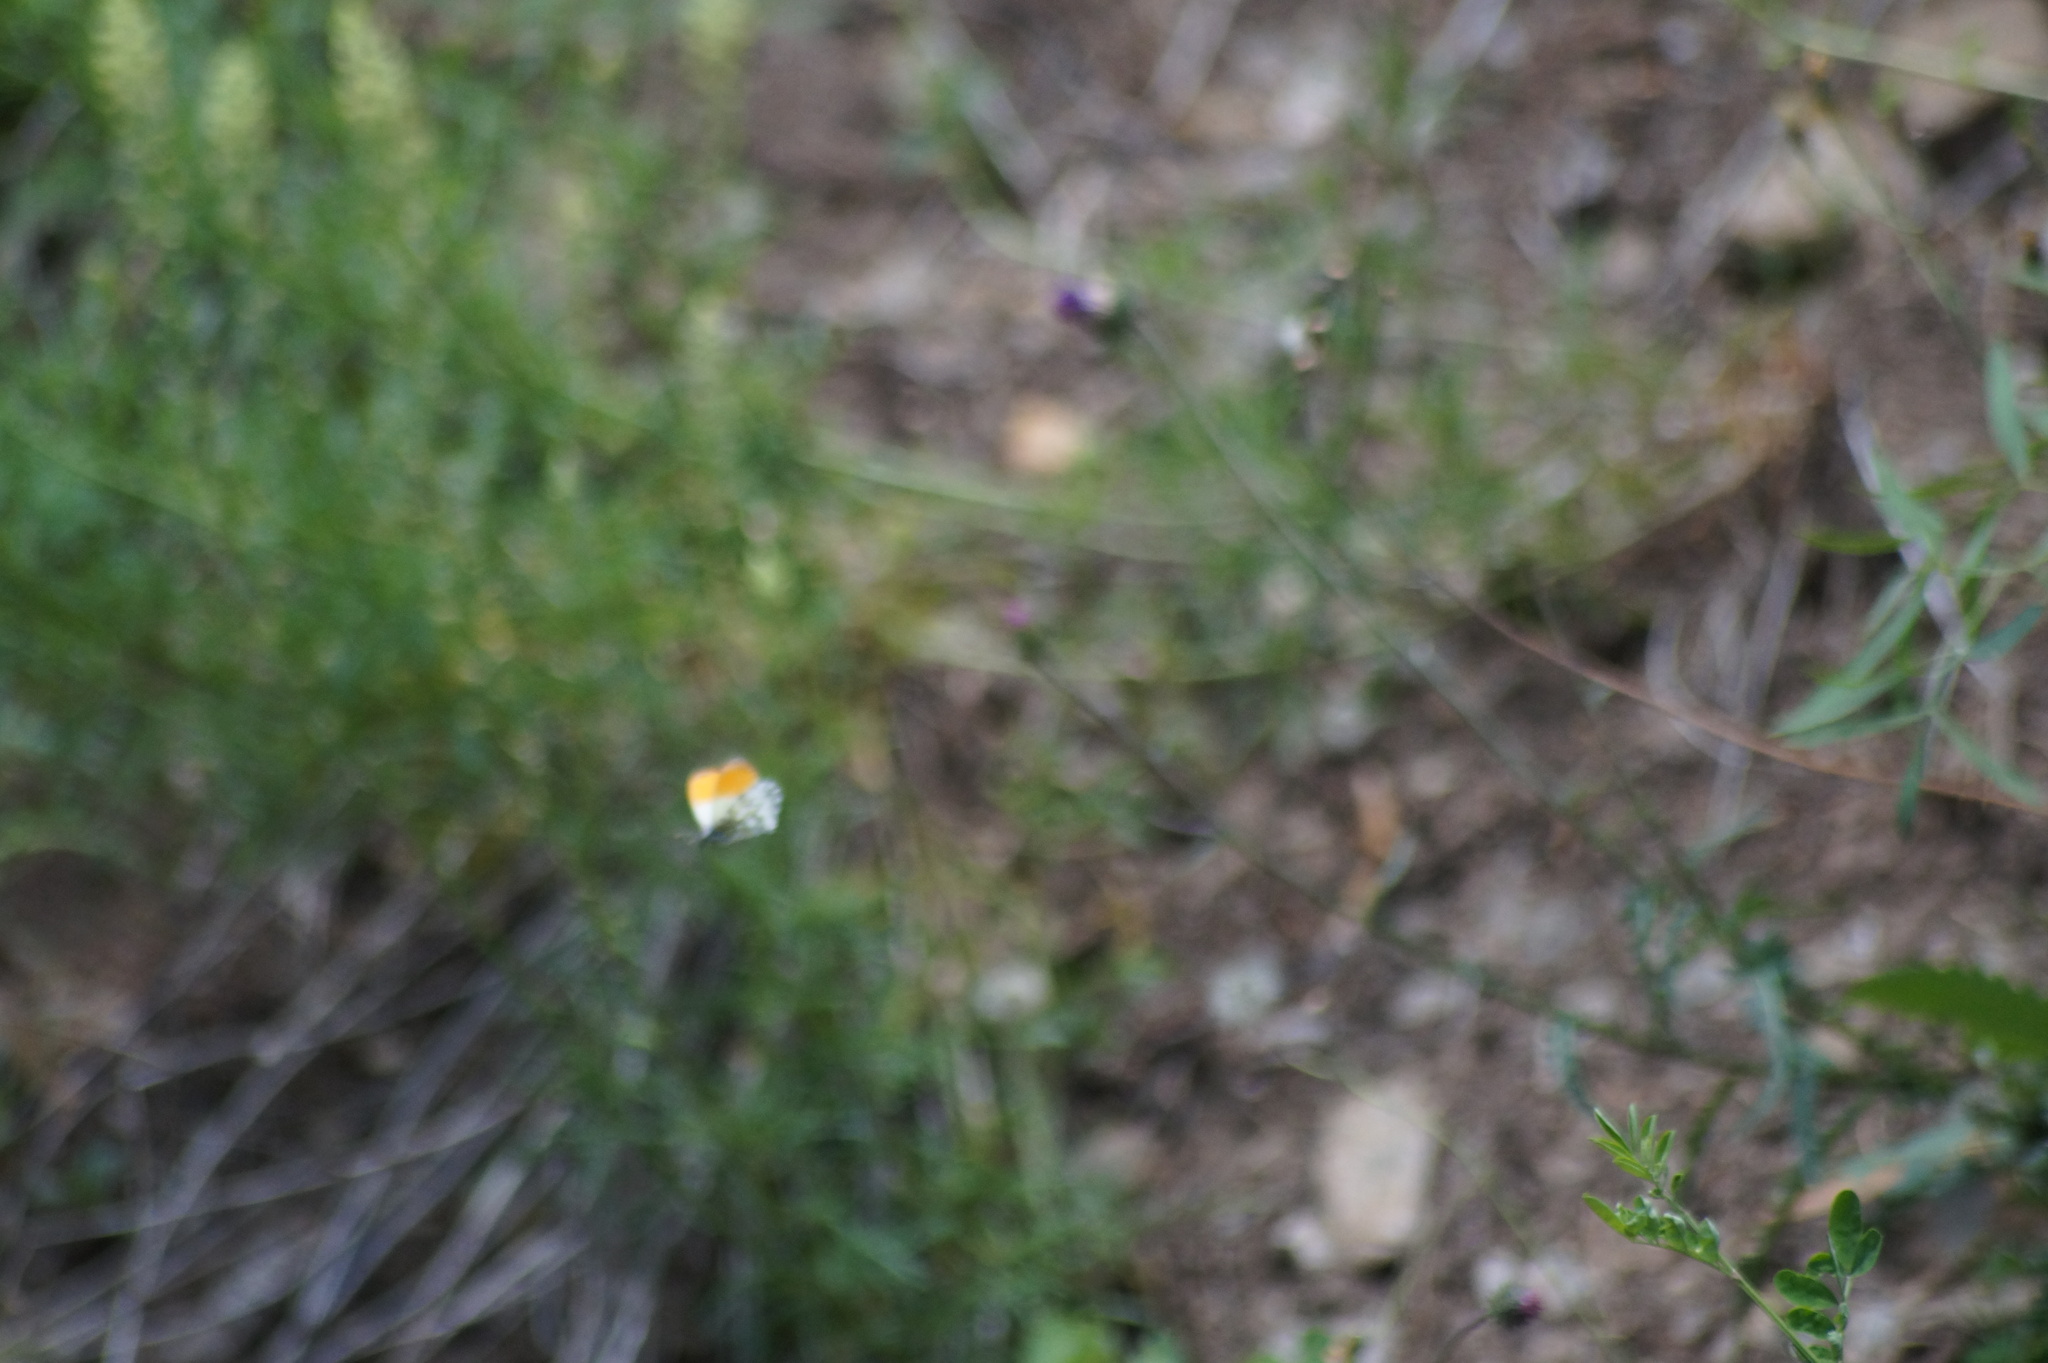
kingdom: Animalia
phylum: Arthropoda
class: Insecta
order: Lepidoptera
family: Pieridae
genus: Anthocharis
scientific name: Anthocharis cardamines
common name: Orange-tip
